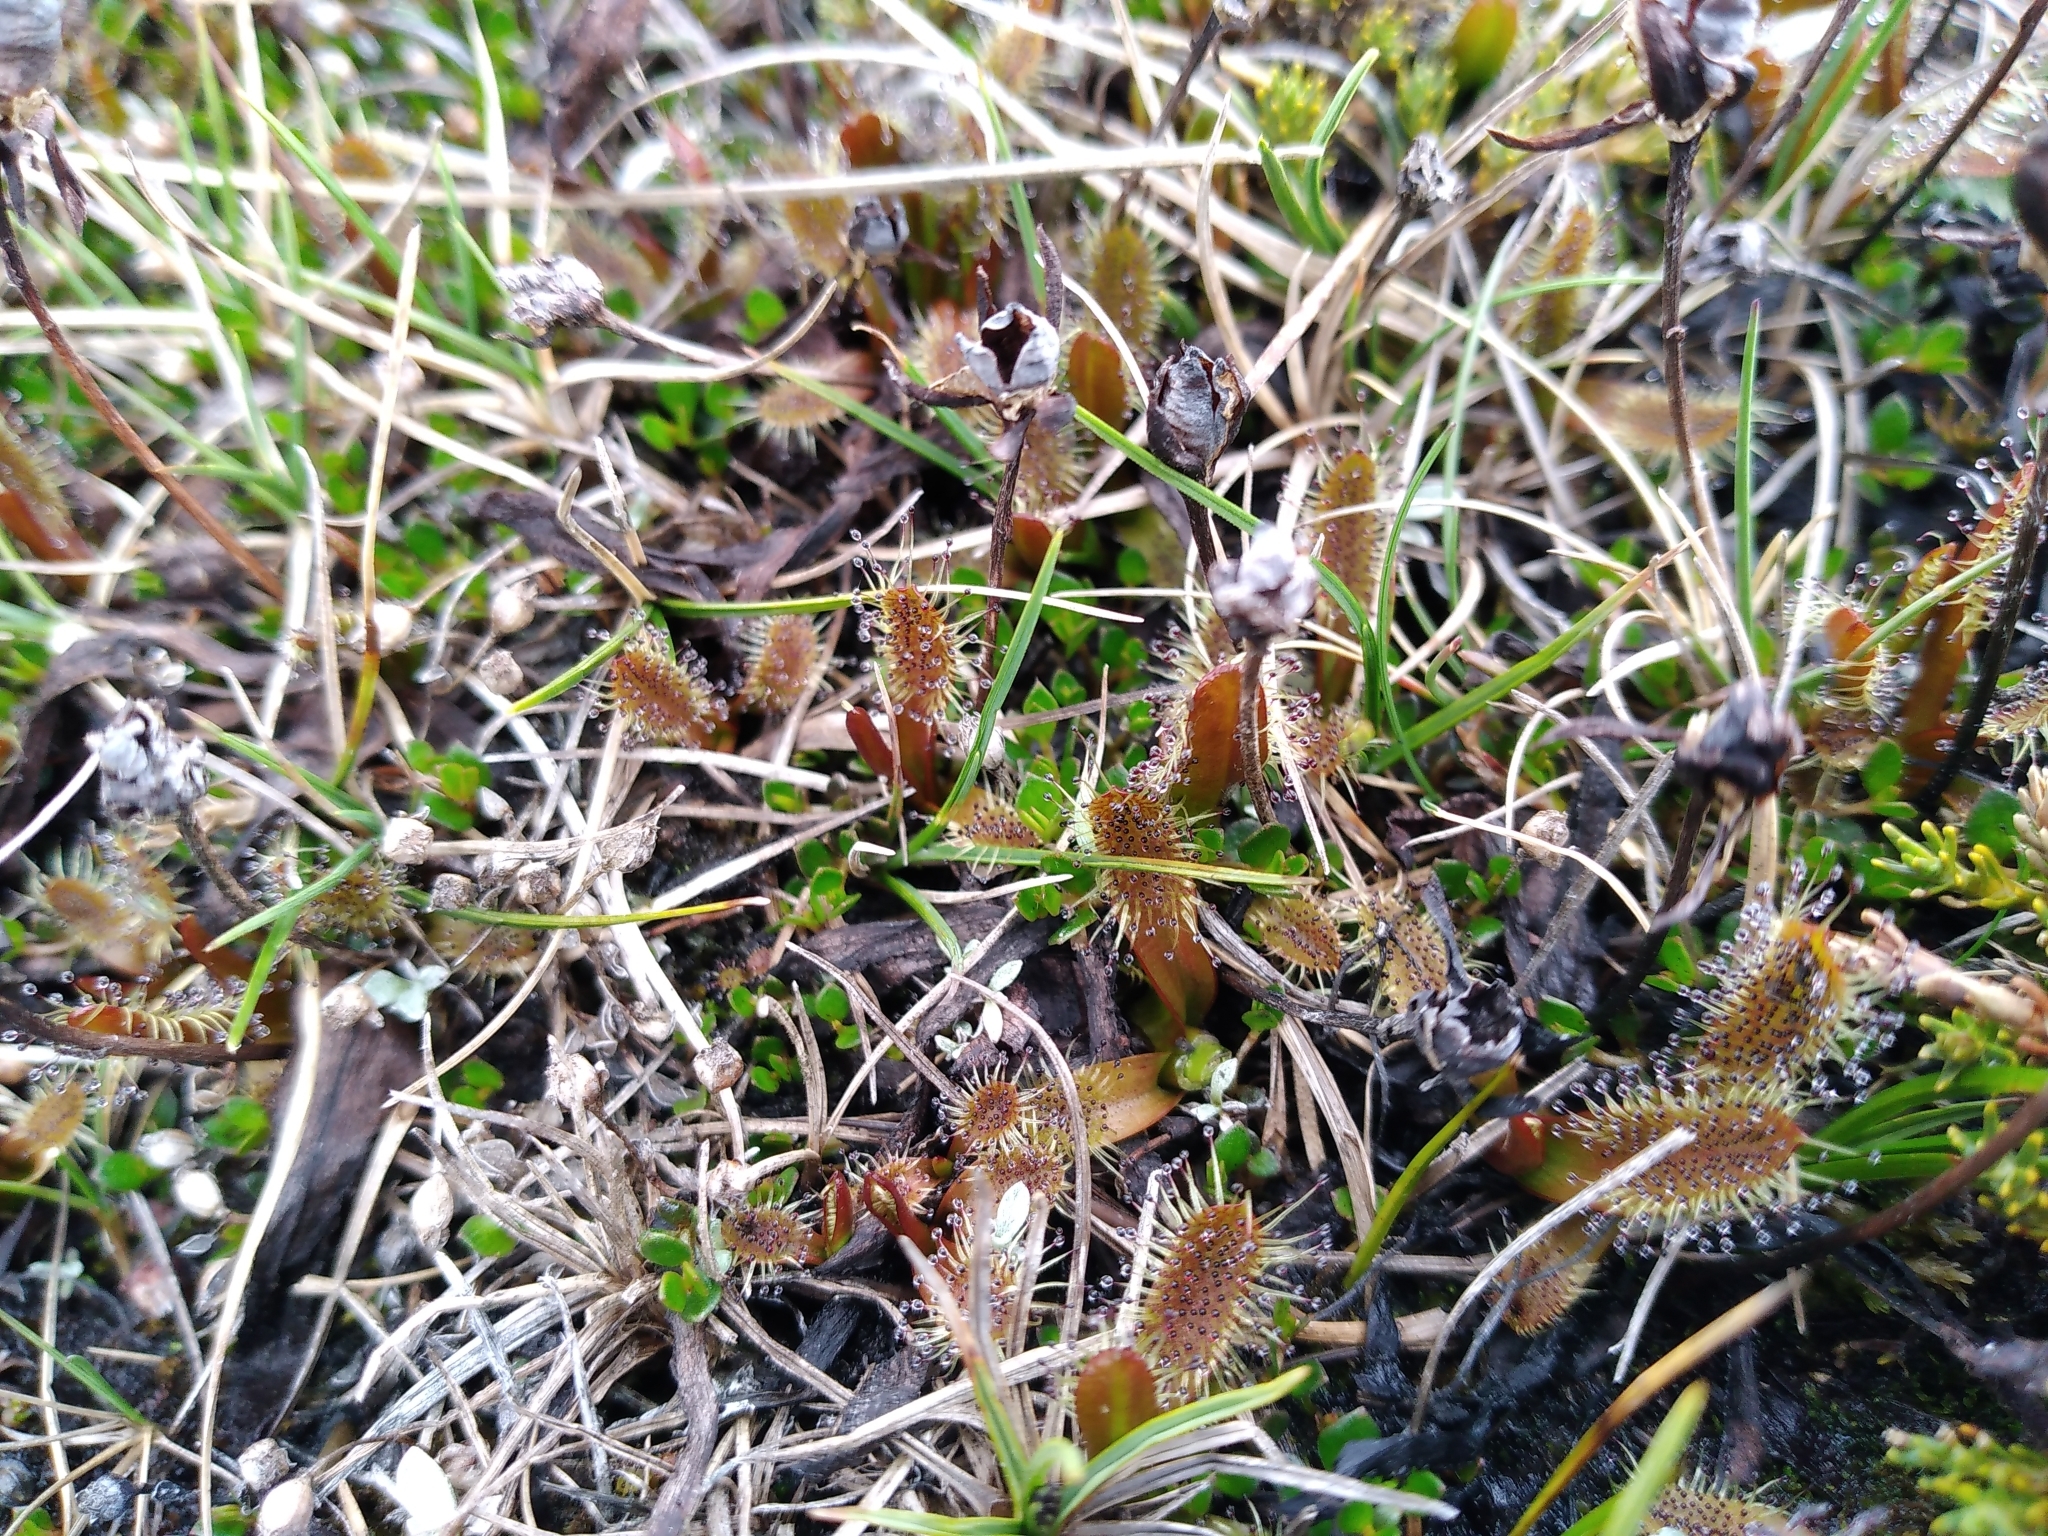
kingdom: Plantae
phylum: Tracheophyta
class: Magnoliopsida
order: Caryophyllales
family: Droseraceae
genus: Drosera
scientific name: Drosera arcturi
